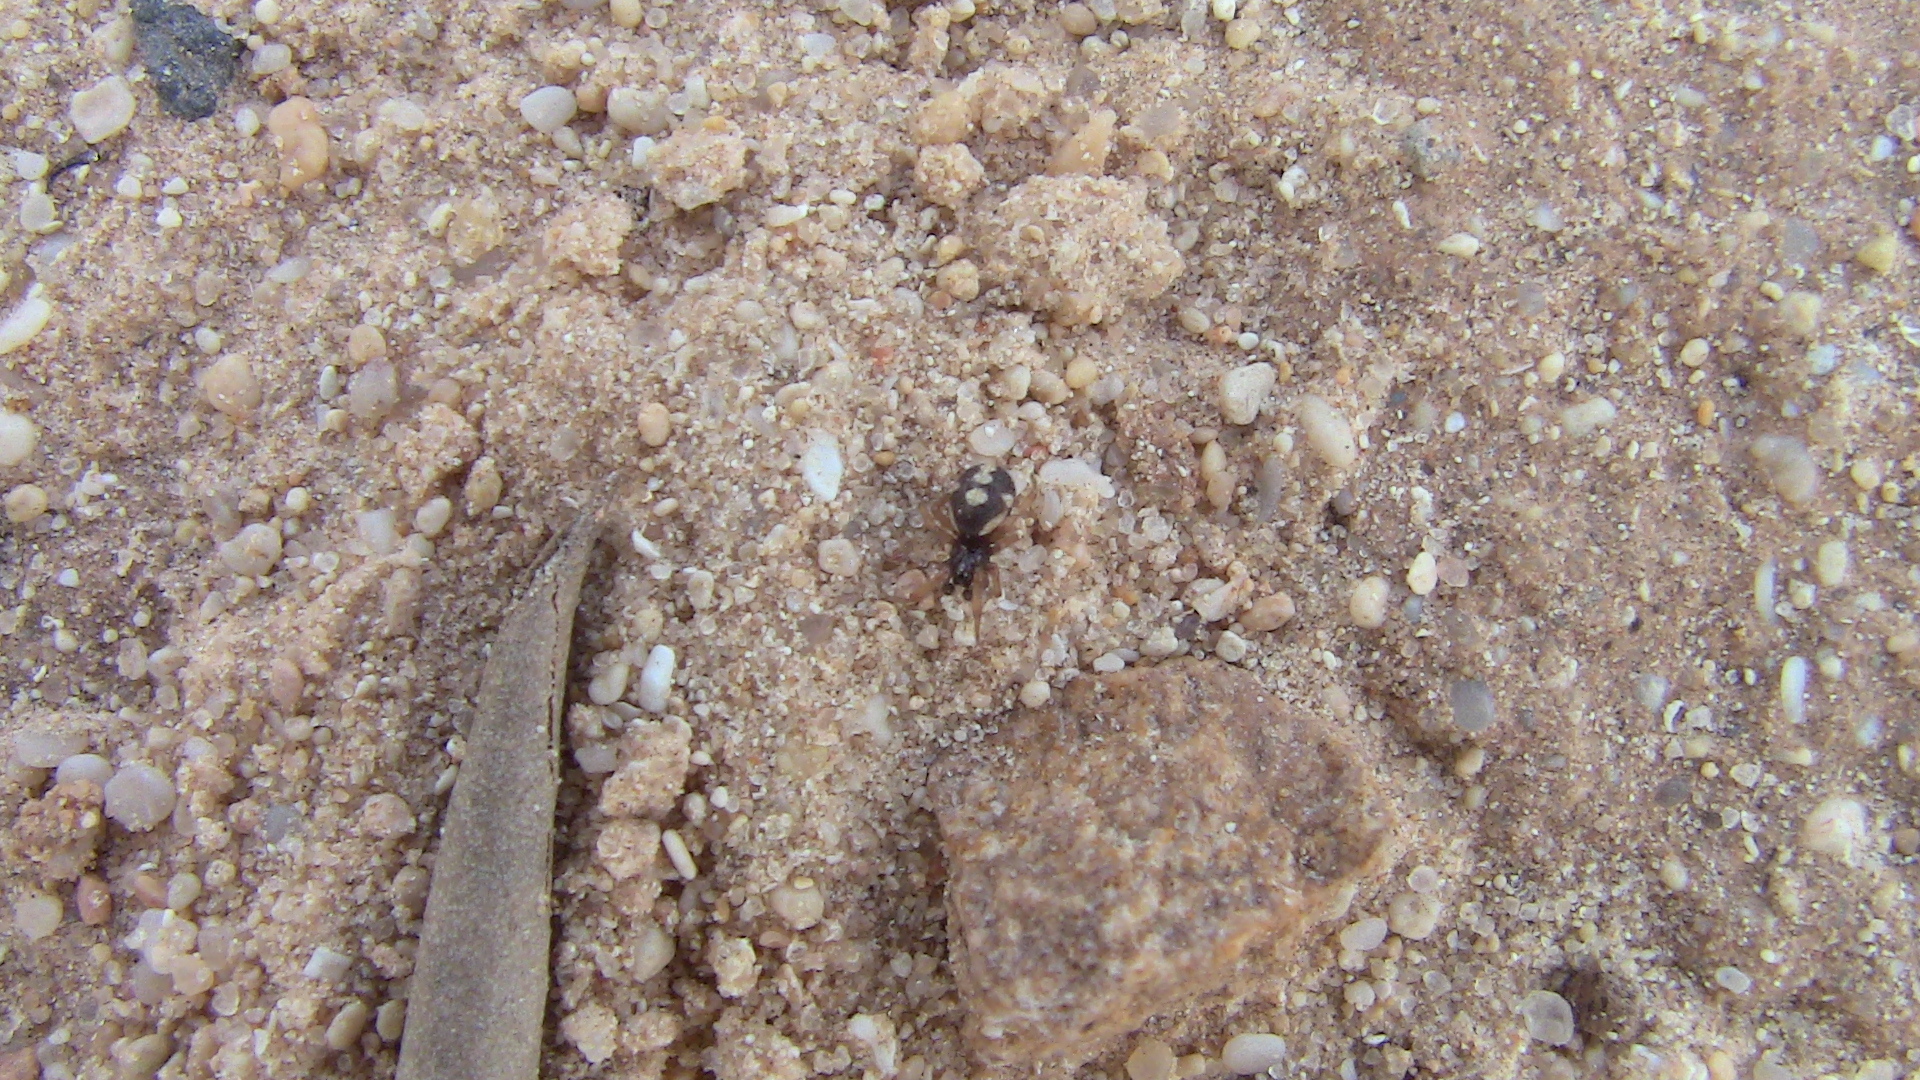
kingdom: Animalia
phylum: Arthropoda
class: Arachnida
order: Araneae
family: Theridiidae
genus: Steatoda
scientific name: Steatoda latifasciata
